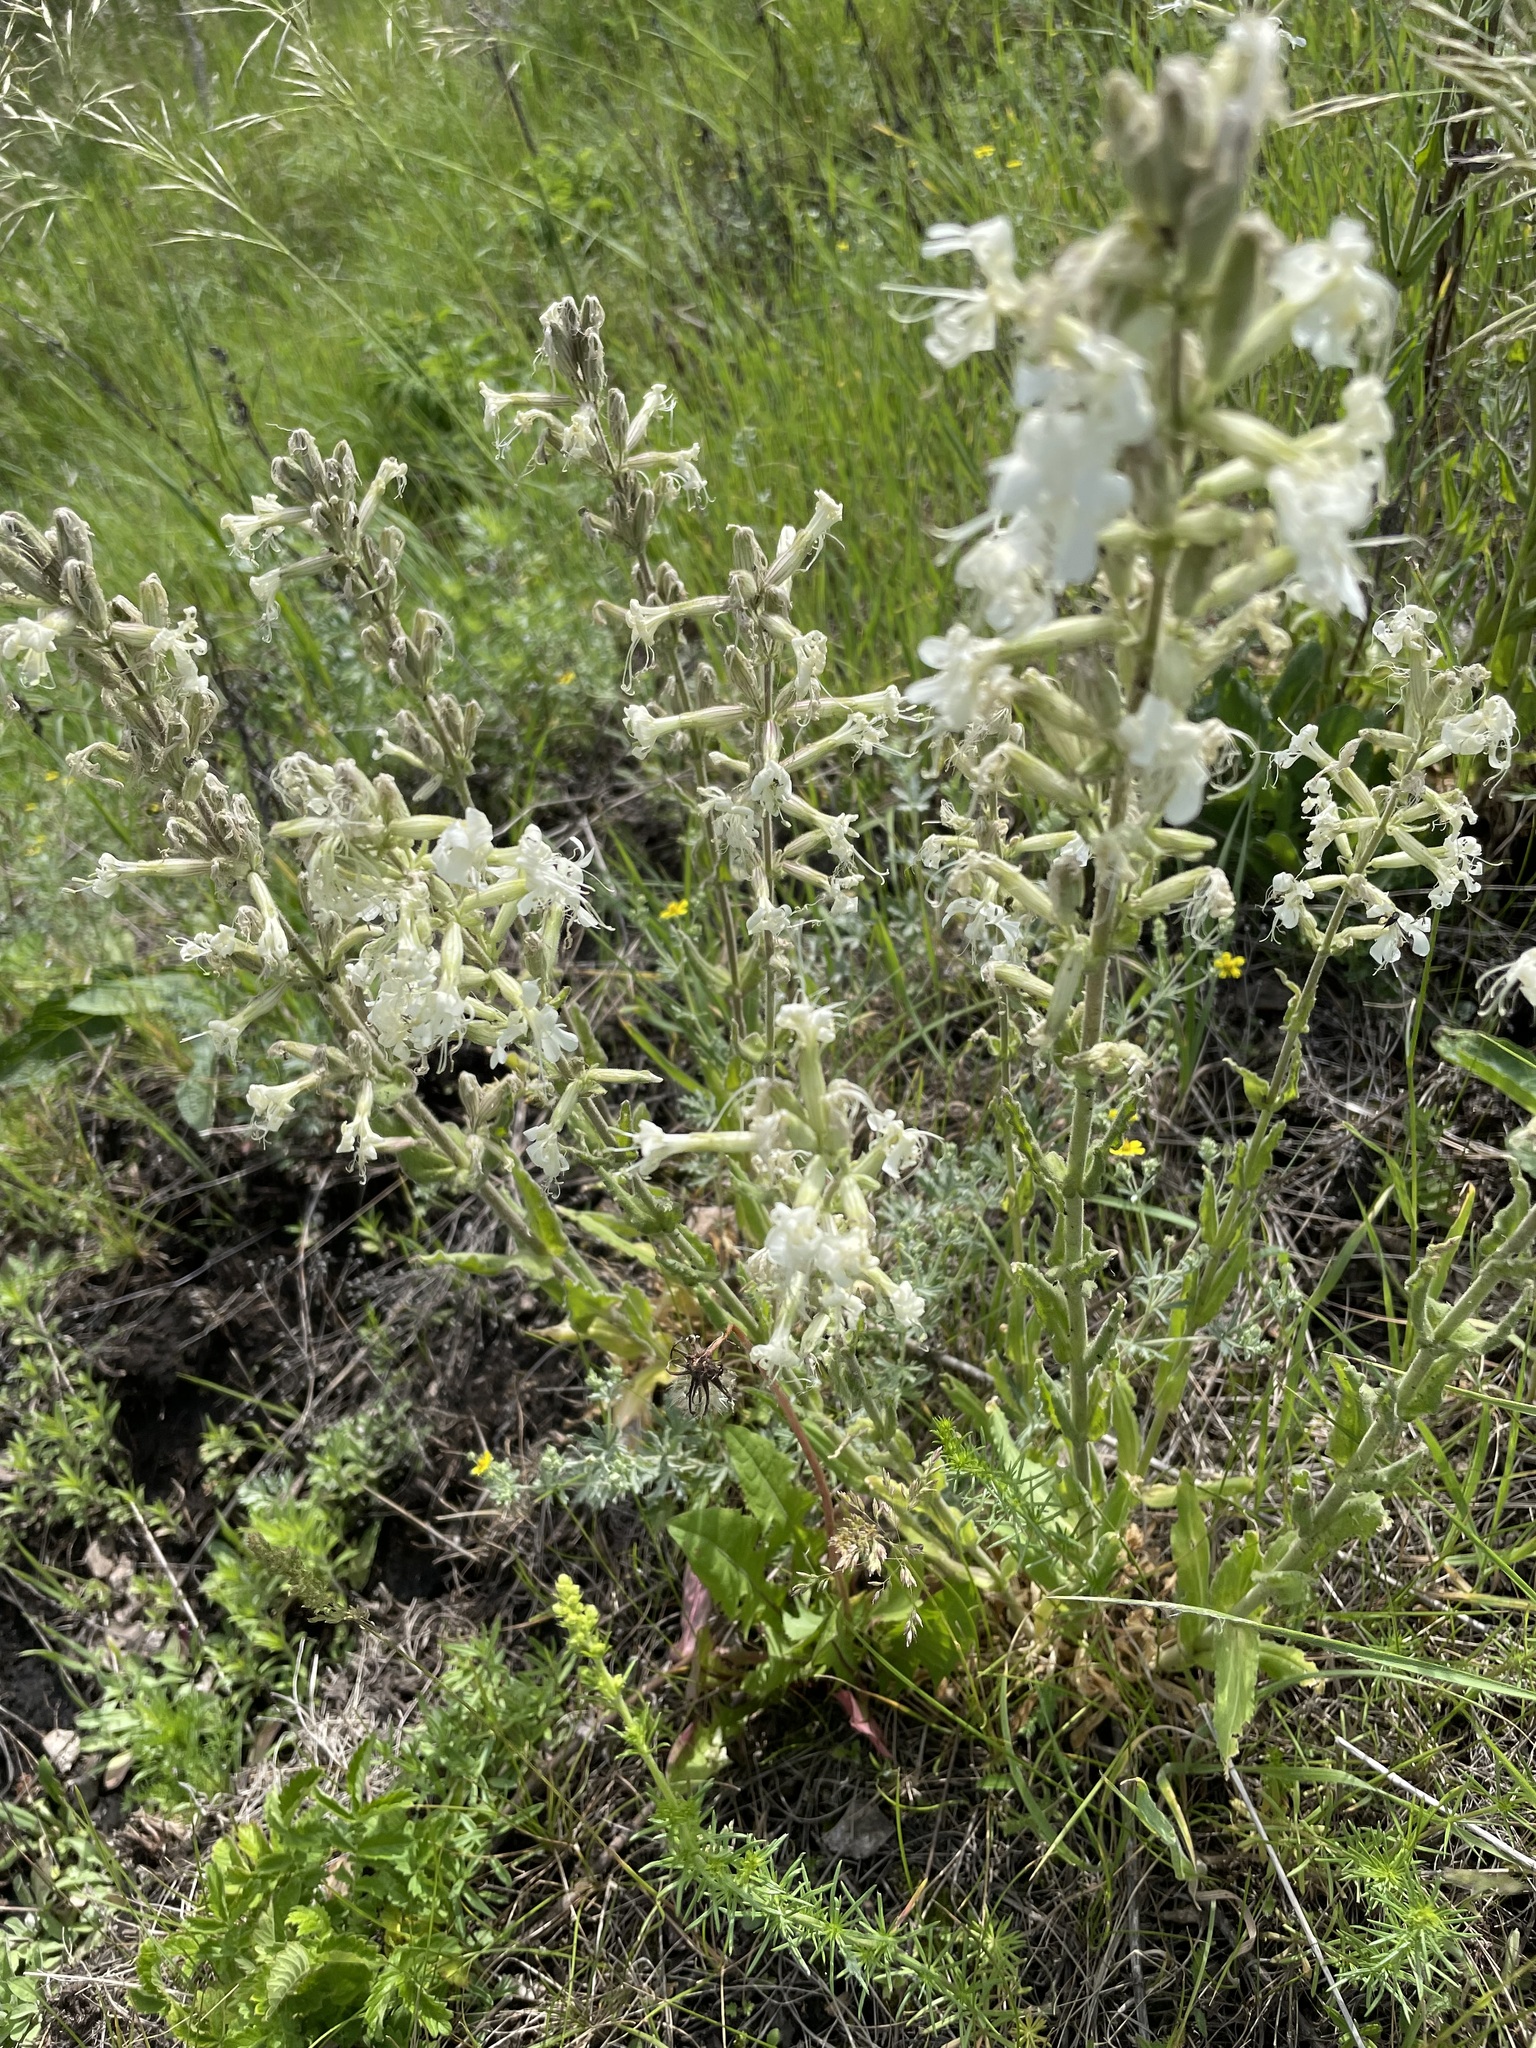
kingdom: Plantae
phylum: Tracheophyta
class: Magnoliopsida
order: Caryophyllales
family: Caryophyllaceae
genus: Silene
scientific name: Silene viscosa
